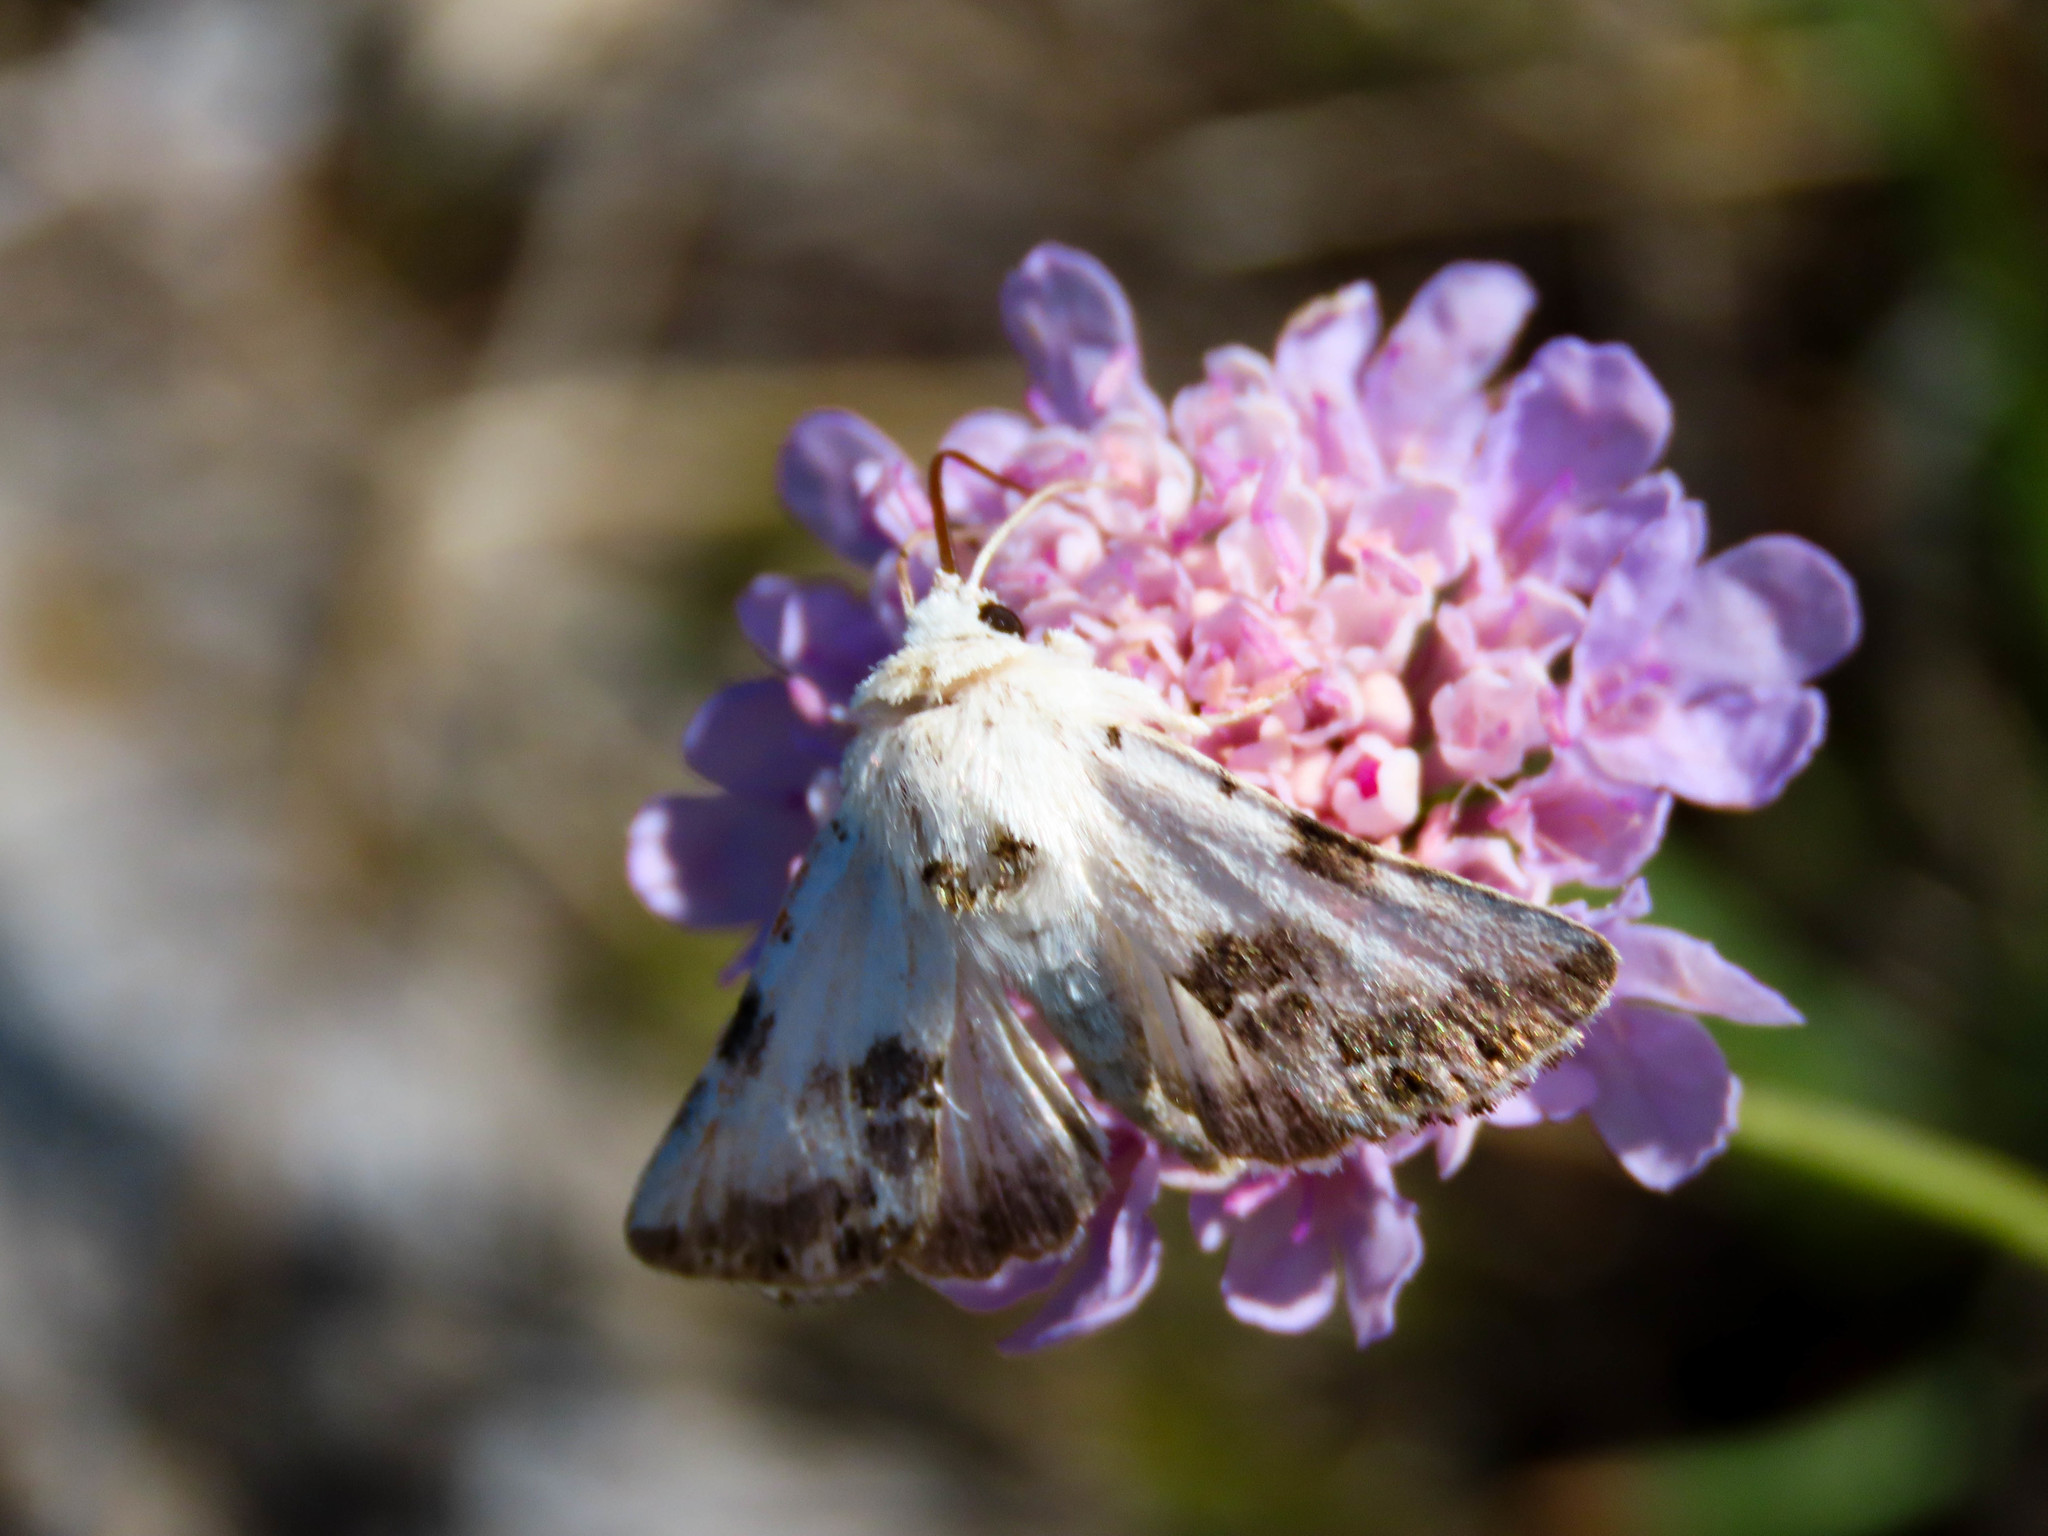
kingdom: Animalia
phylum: Arthropoda
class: Insecta
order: Lepidoptera
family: Noctuidae
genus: Calophasia
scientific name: Calophasia opalina
